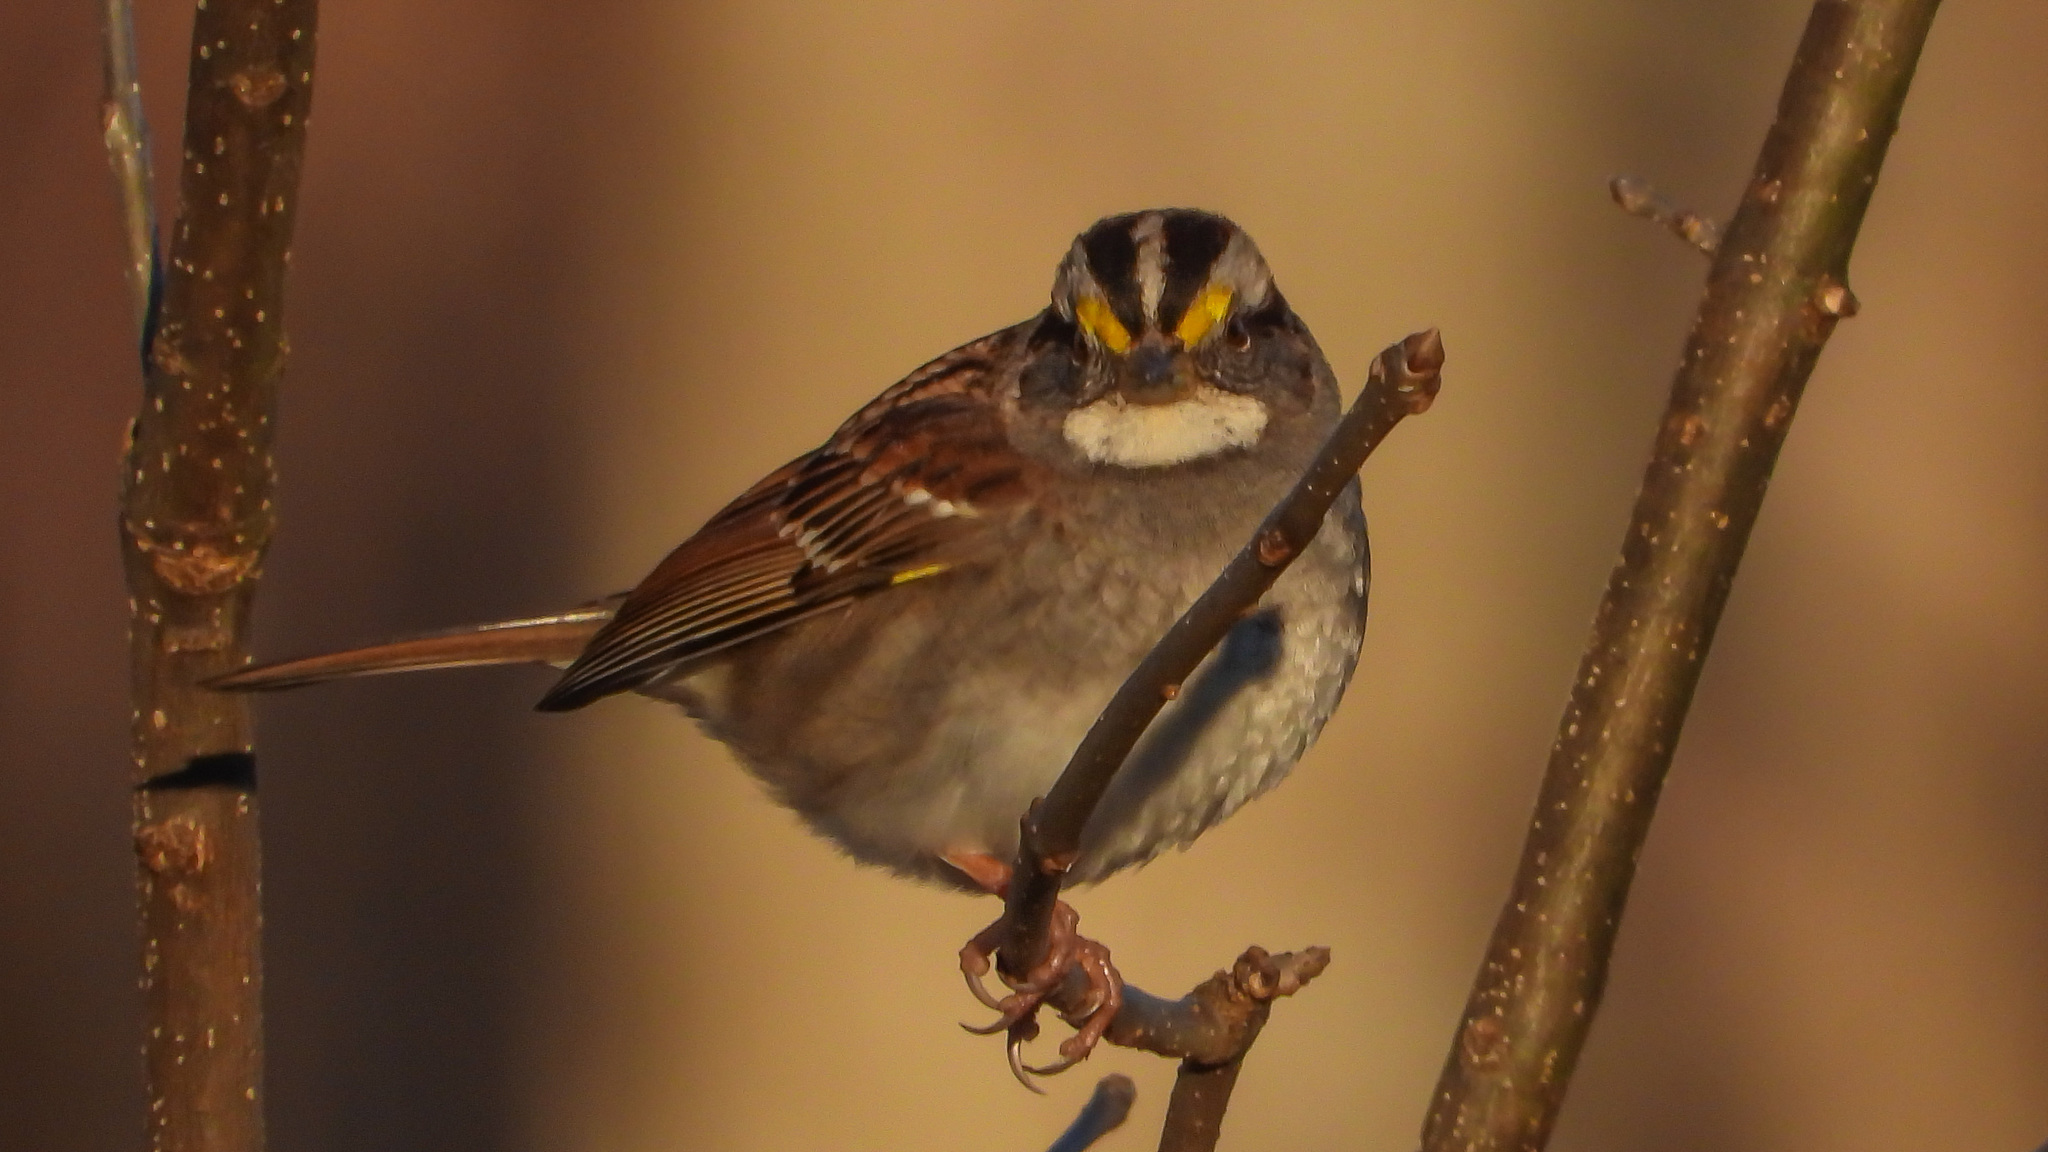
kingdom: Animalia
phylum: Chordata
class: Aves
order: Passeriformes
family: Passerellidae
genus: Zonotrichia
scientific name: Zonotrichia albicollis
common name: White-throated sparrow
